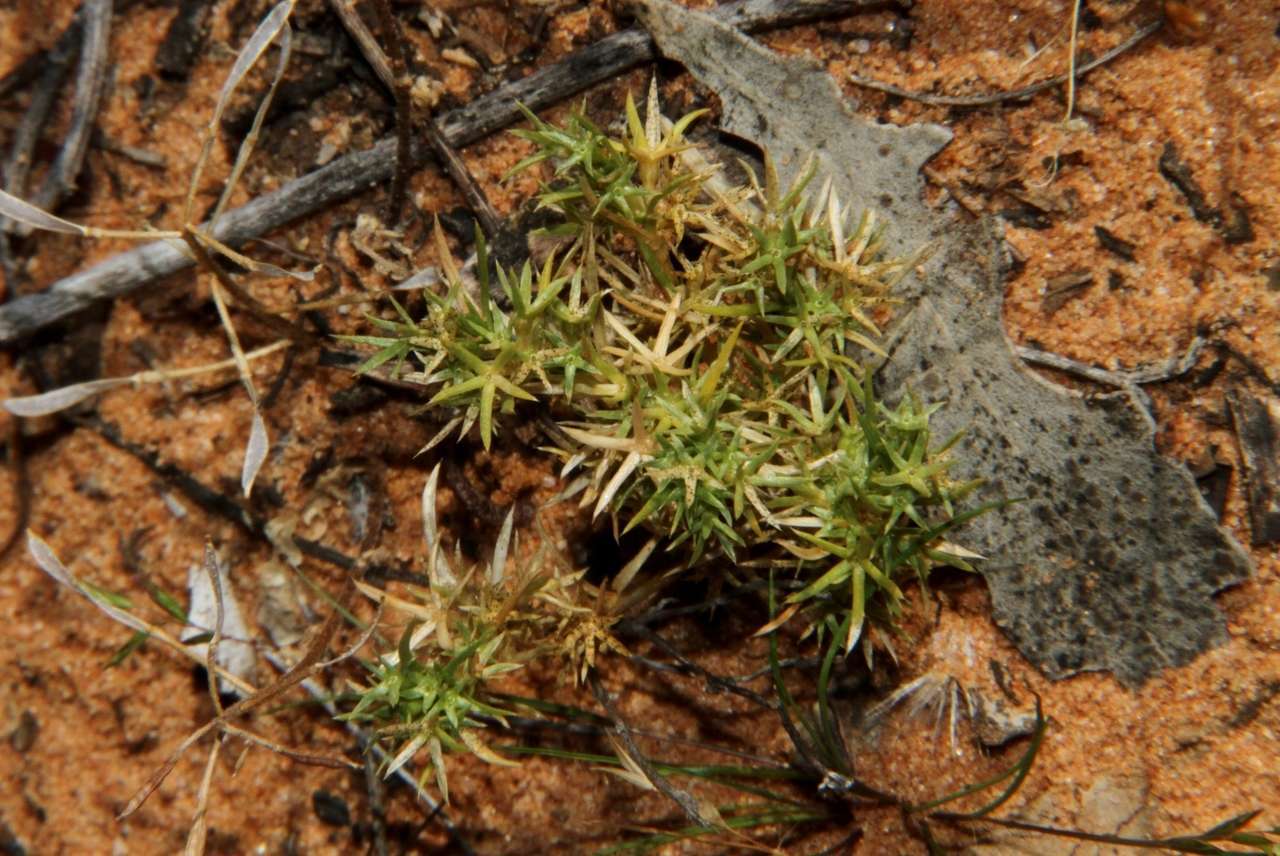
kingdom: Plantae
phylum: Tracheophyta
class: Magnoliopsida
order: Caryophyllales
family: Caryophyllaceae
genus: Scleranthus
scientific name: Scleranthus minusculus
